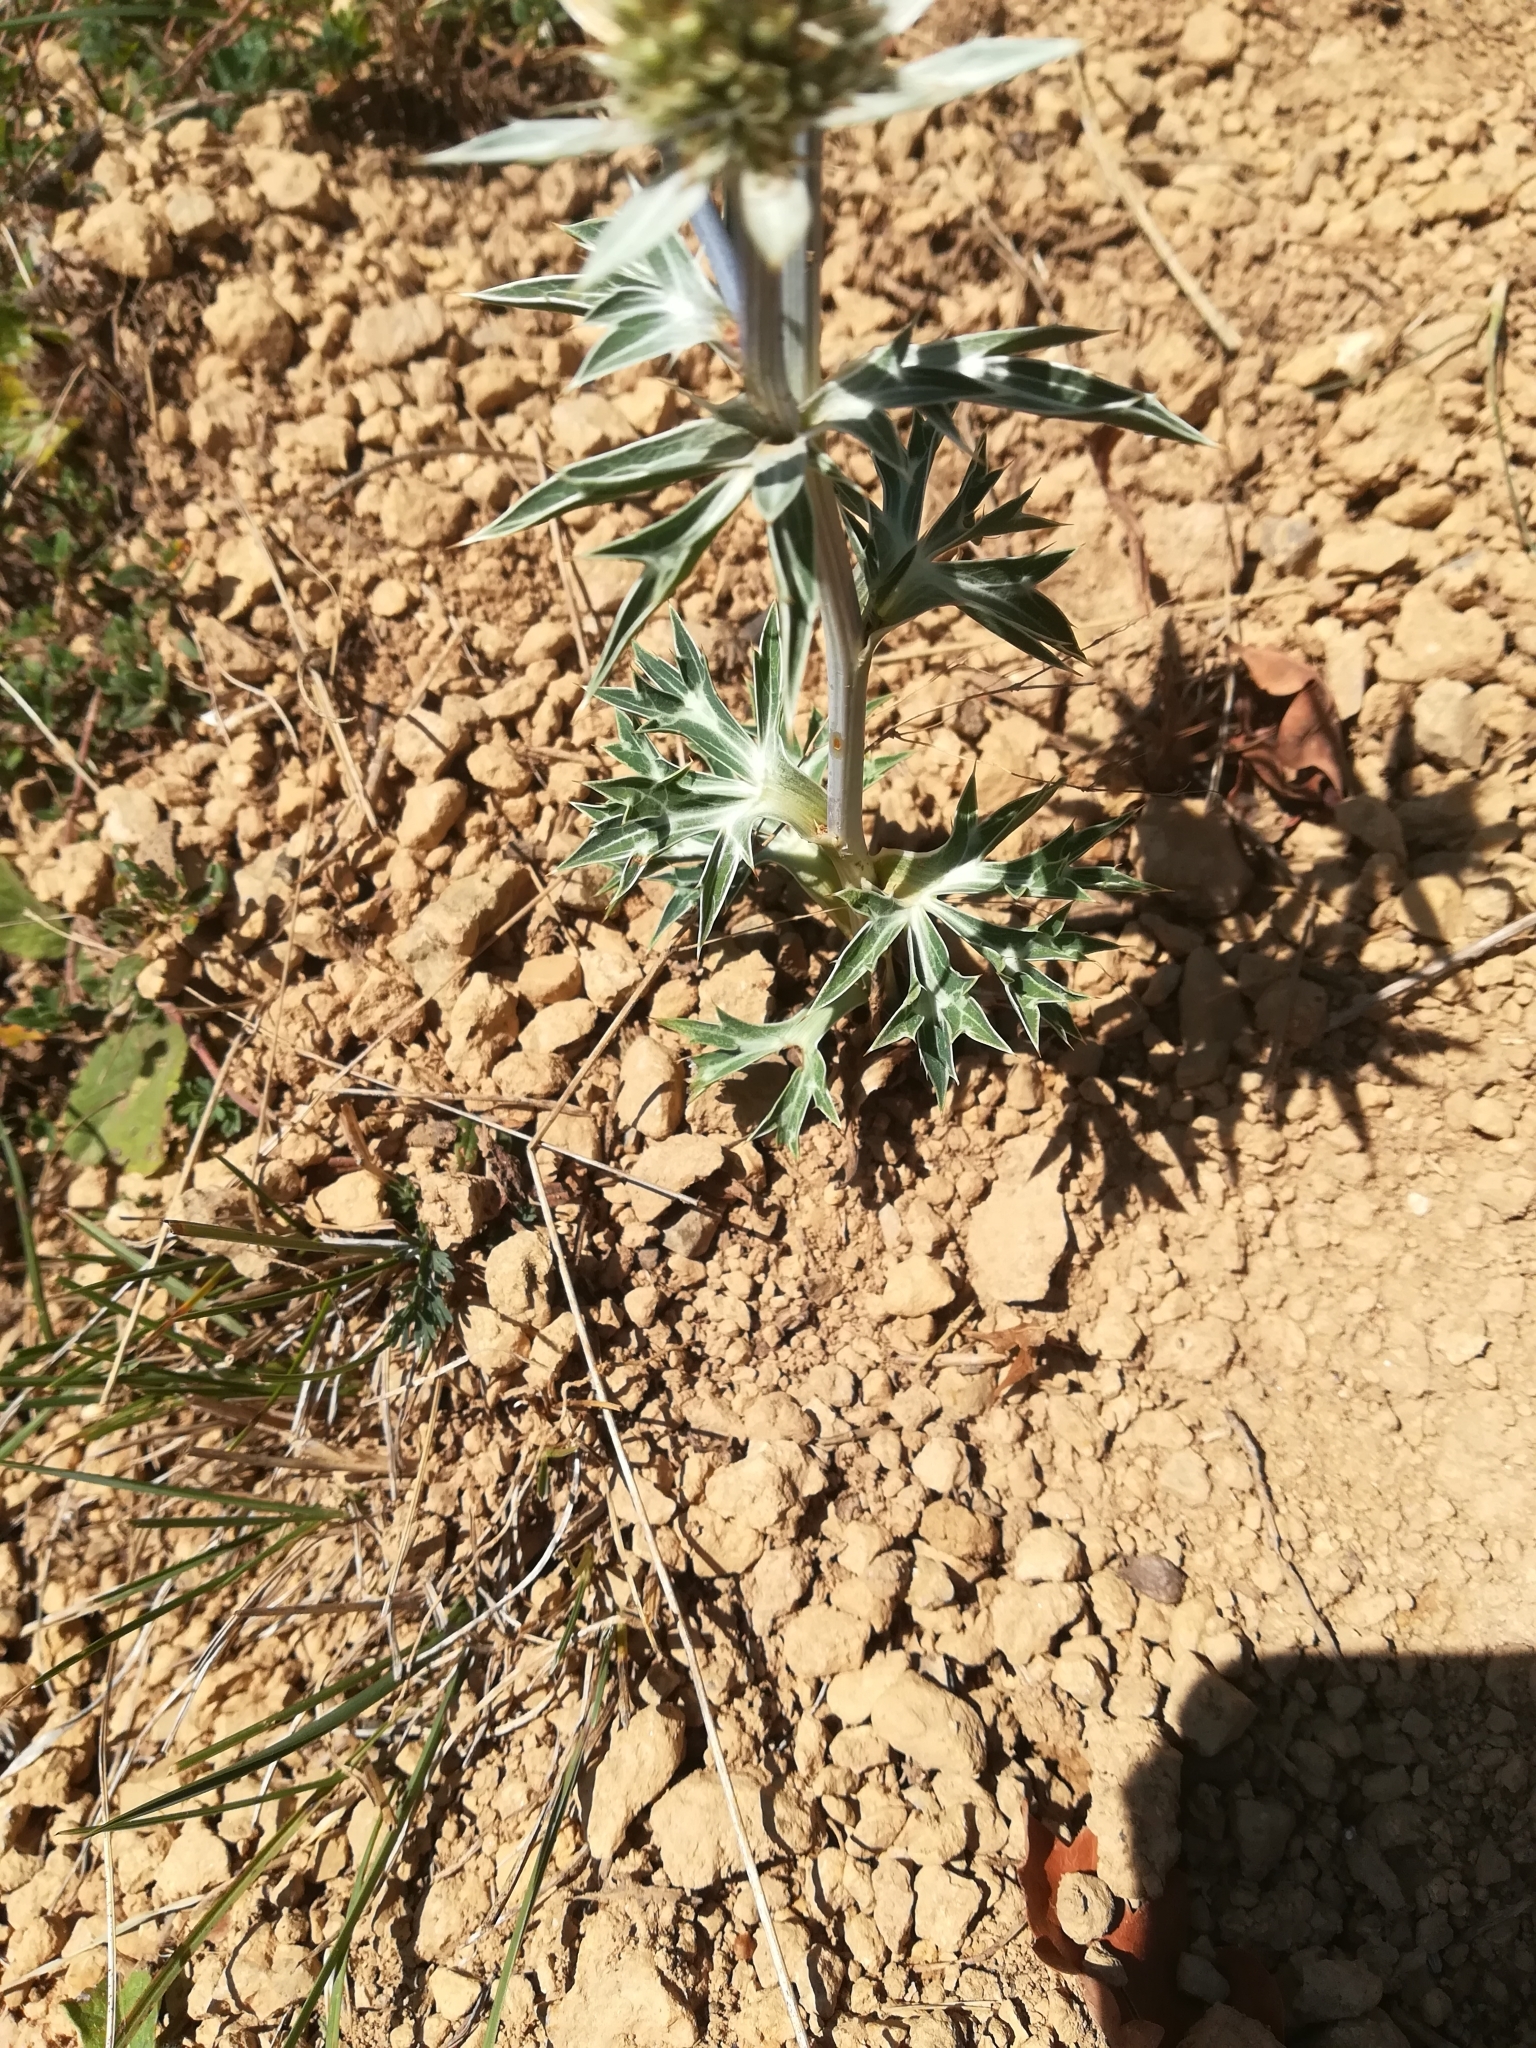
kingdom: Plantae
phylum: Tracheophyta
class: Magnoliopsida
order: Apiales
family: Apiaceae
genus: Eryngium
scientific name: Eryngium bourgatii
